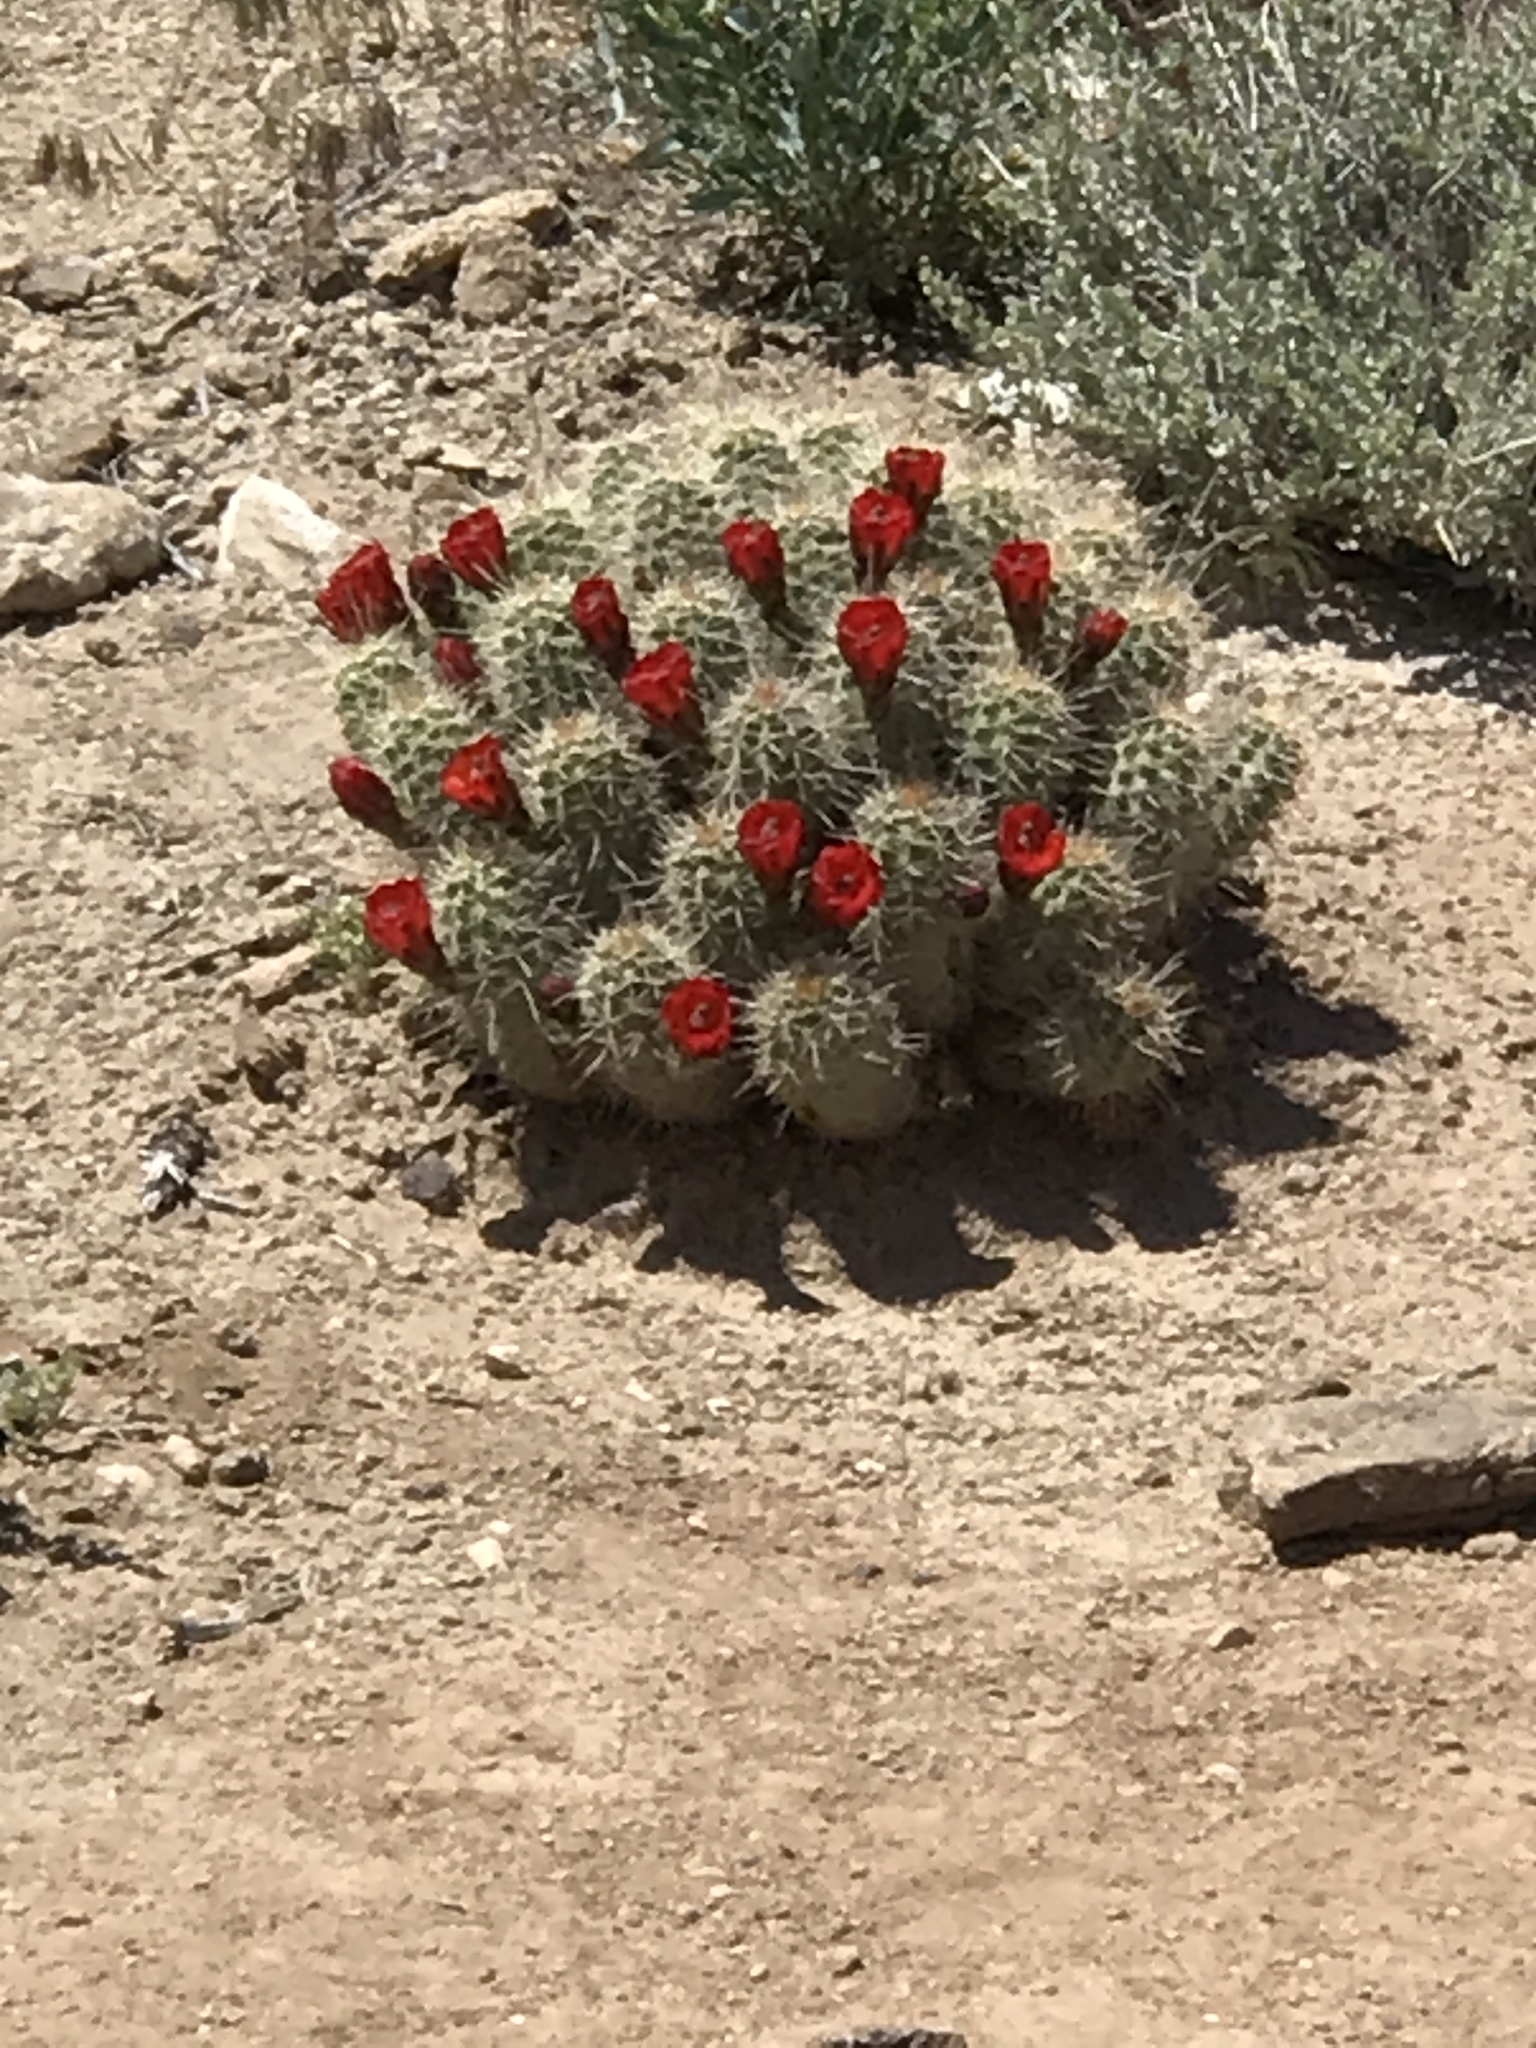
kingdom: Plantae
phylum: Tracheophyta
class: Magnoliopsida
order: Caryophyllales
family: Cactaceae
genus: Echinocereus
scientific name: Echinocereus triglochidiatus
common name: Claretcup hedgehog
